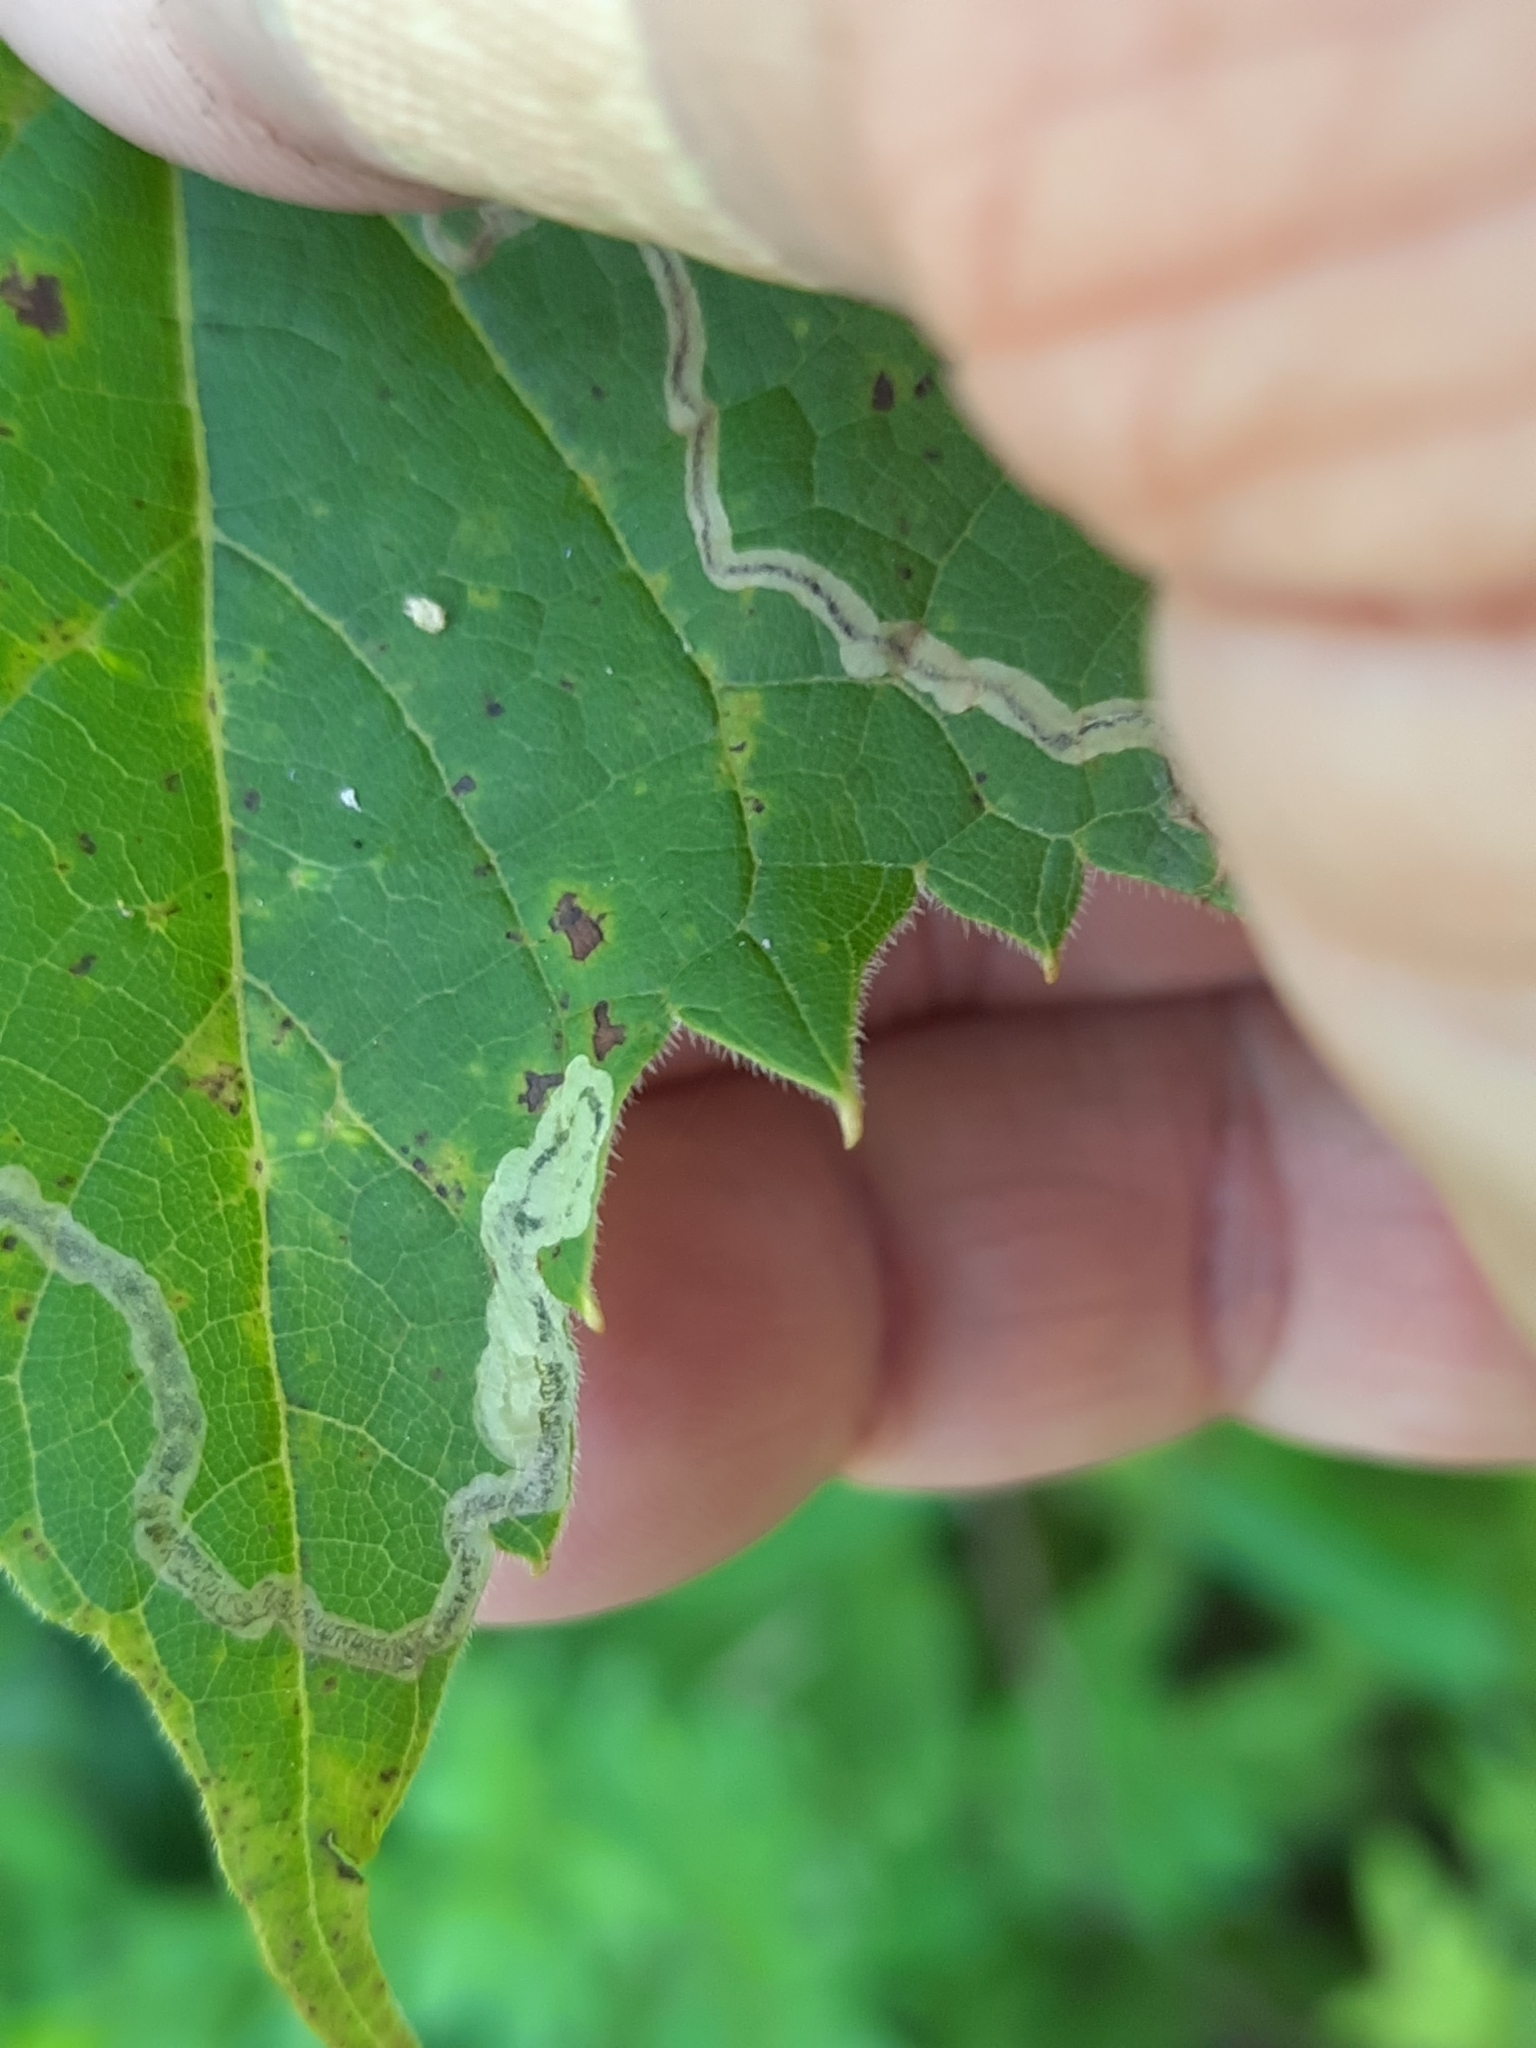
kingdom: Animalia
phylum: Arthropoda
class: Insecta
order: Lepidoptera
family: Gracillariidae
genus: Phyllocnistis
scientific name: Phyllocnistis vitifoliella
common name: Grape leaf-miner moth
